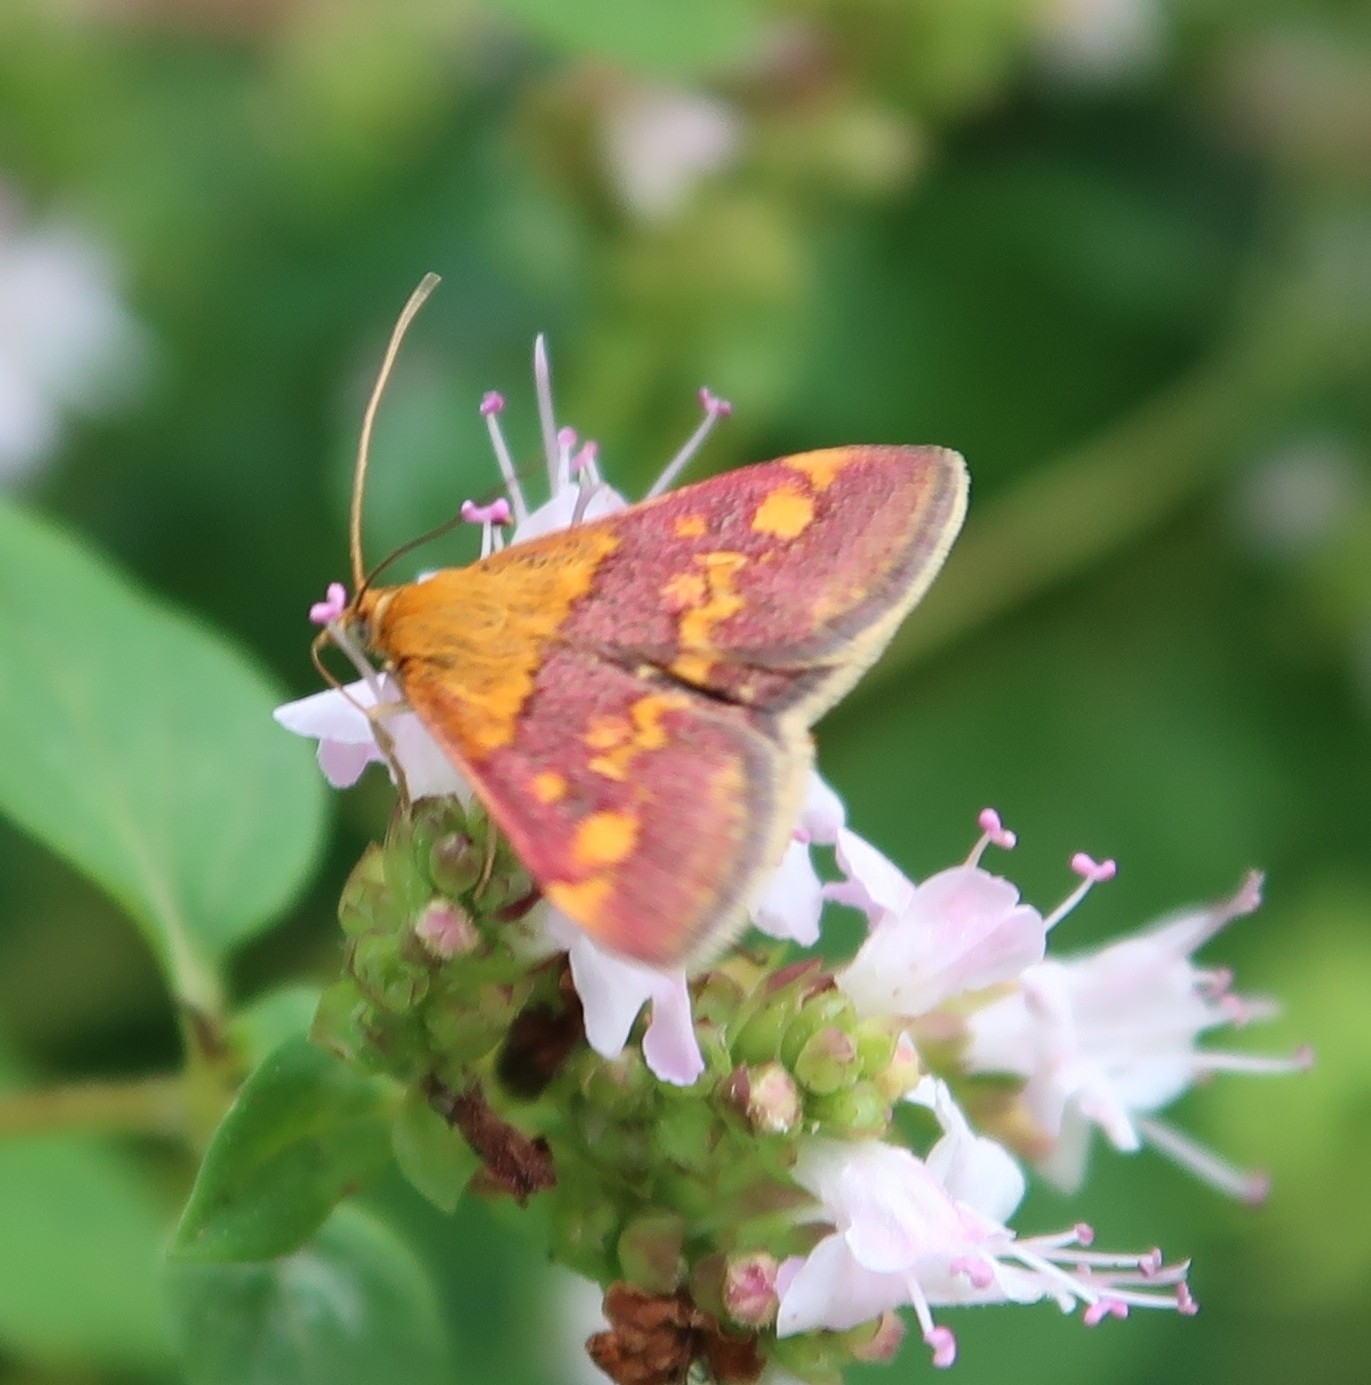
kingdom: Animalia
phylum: Arthropoda
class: Insecta
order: Lepidoptera
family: Crambidae
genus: Pyrausta
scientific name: Pyrausta aurata
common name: Small purple & gold
